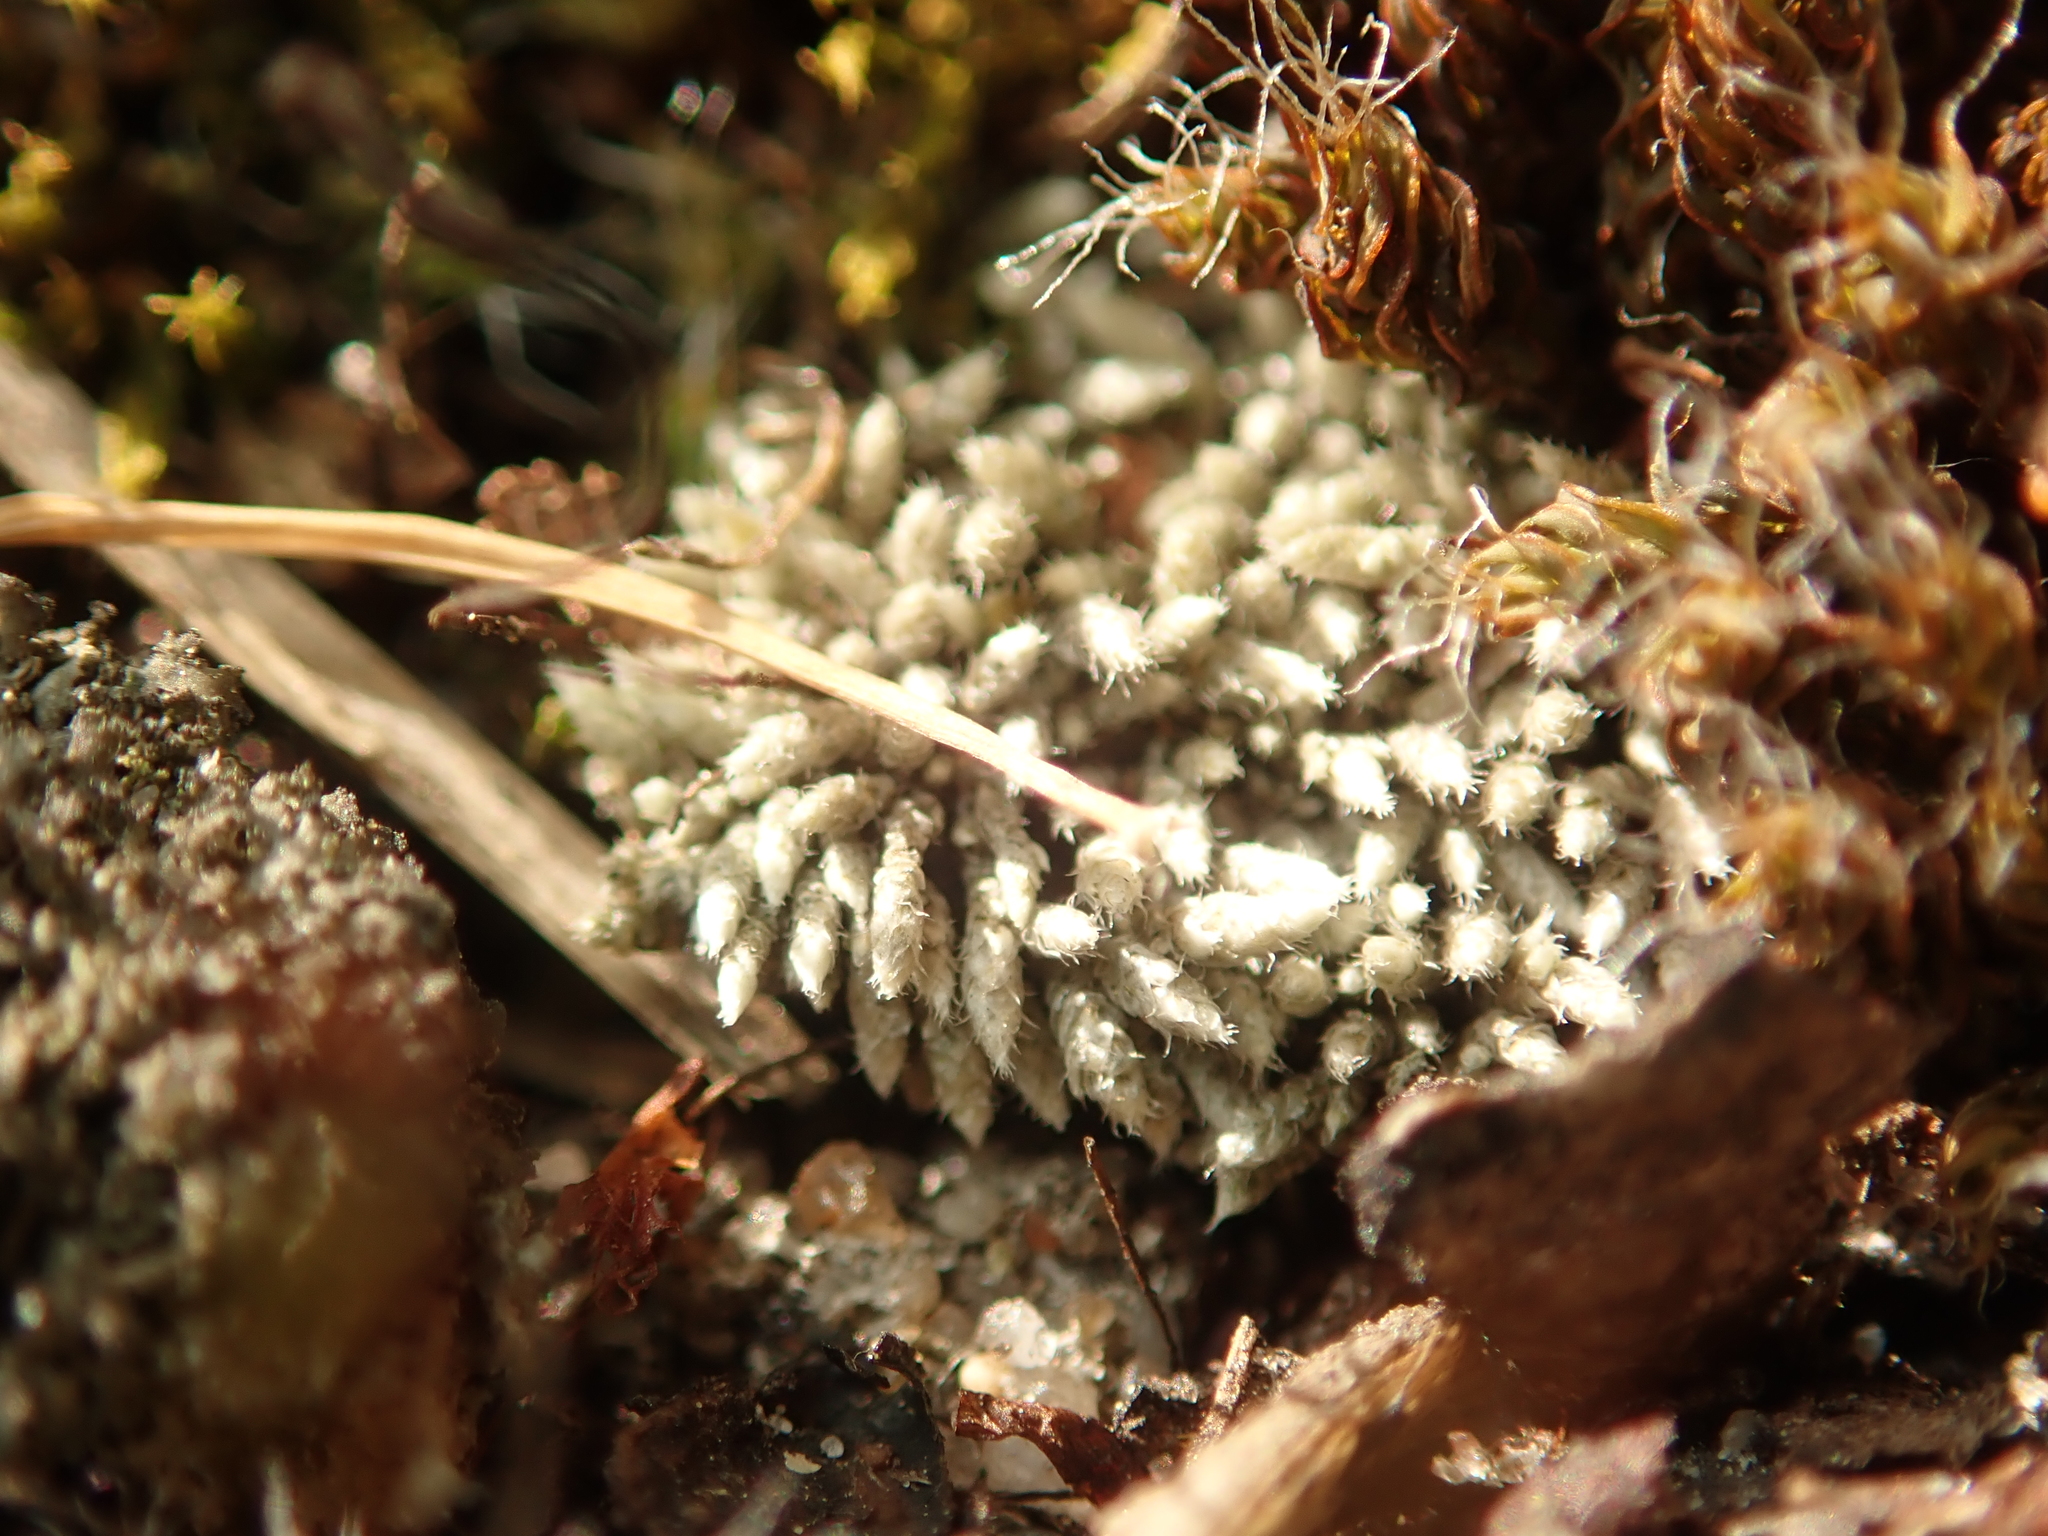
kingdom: Plantae
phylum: Bryophyta
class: Bryopsida
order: Bryales
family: Bryaceae
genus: Bryum
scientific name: Bryum argenteum
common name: Silver-moss
